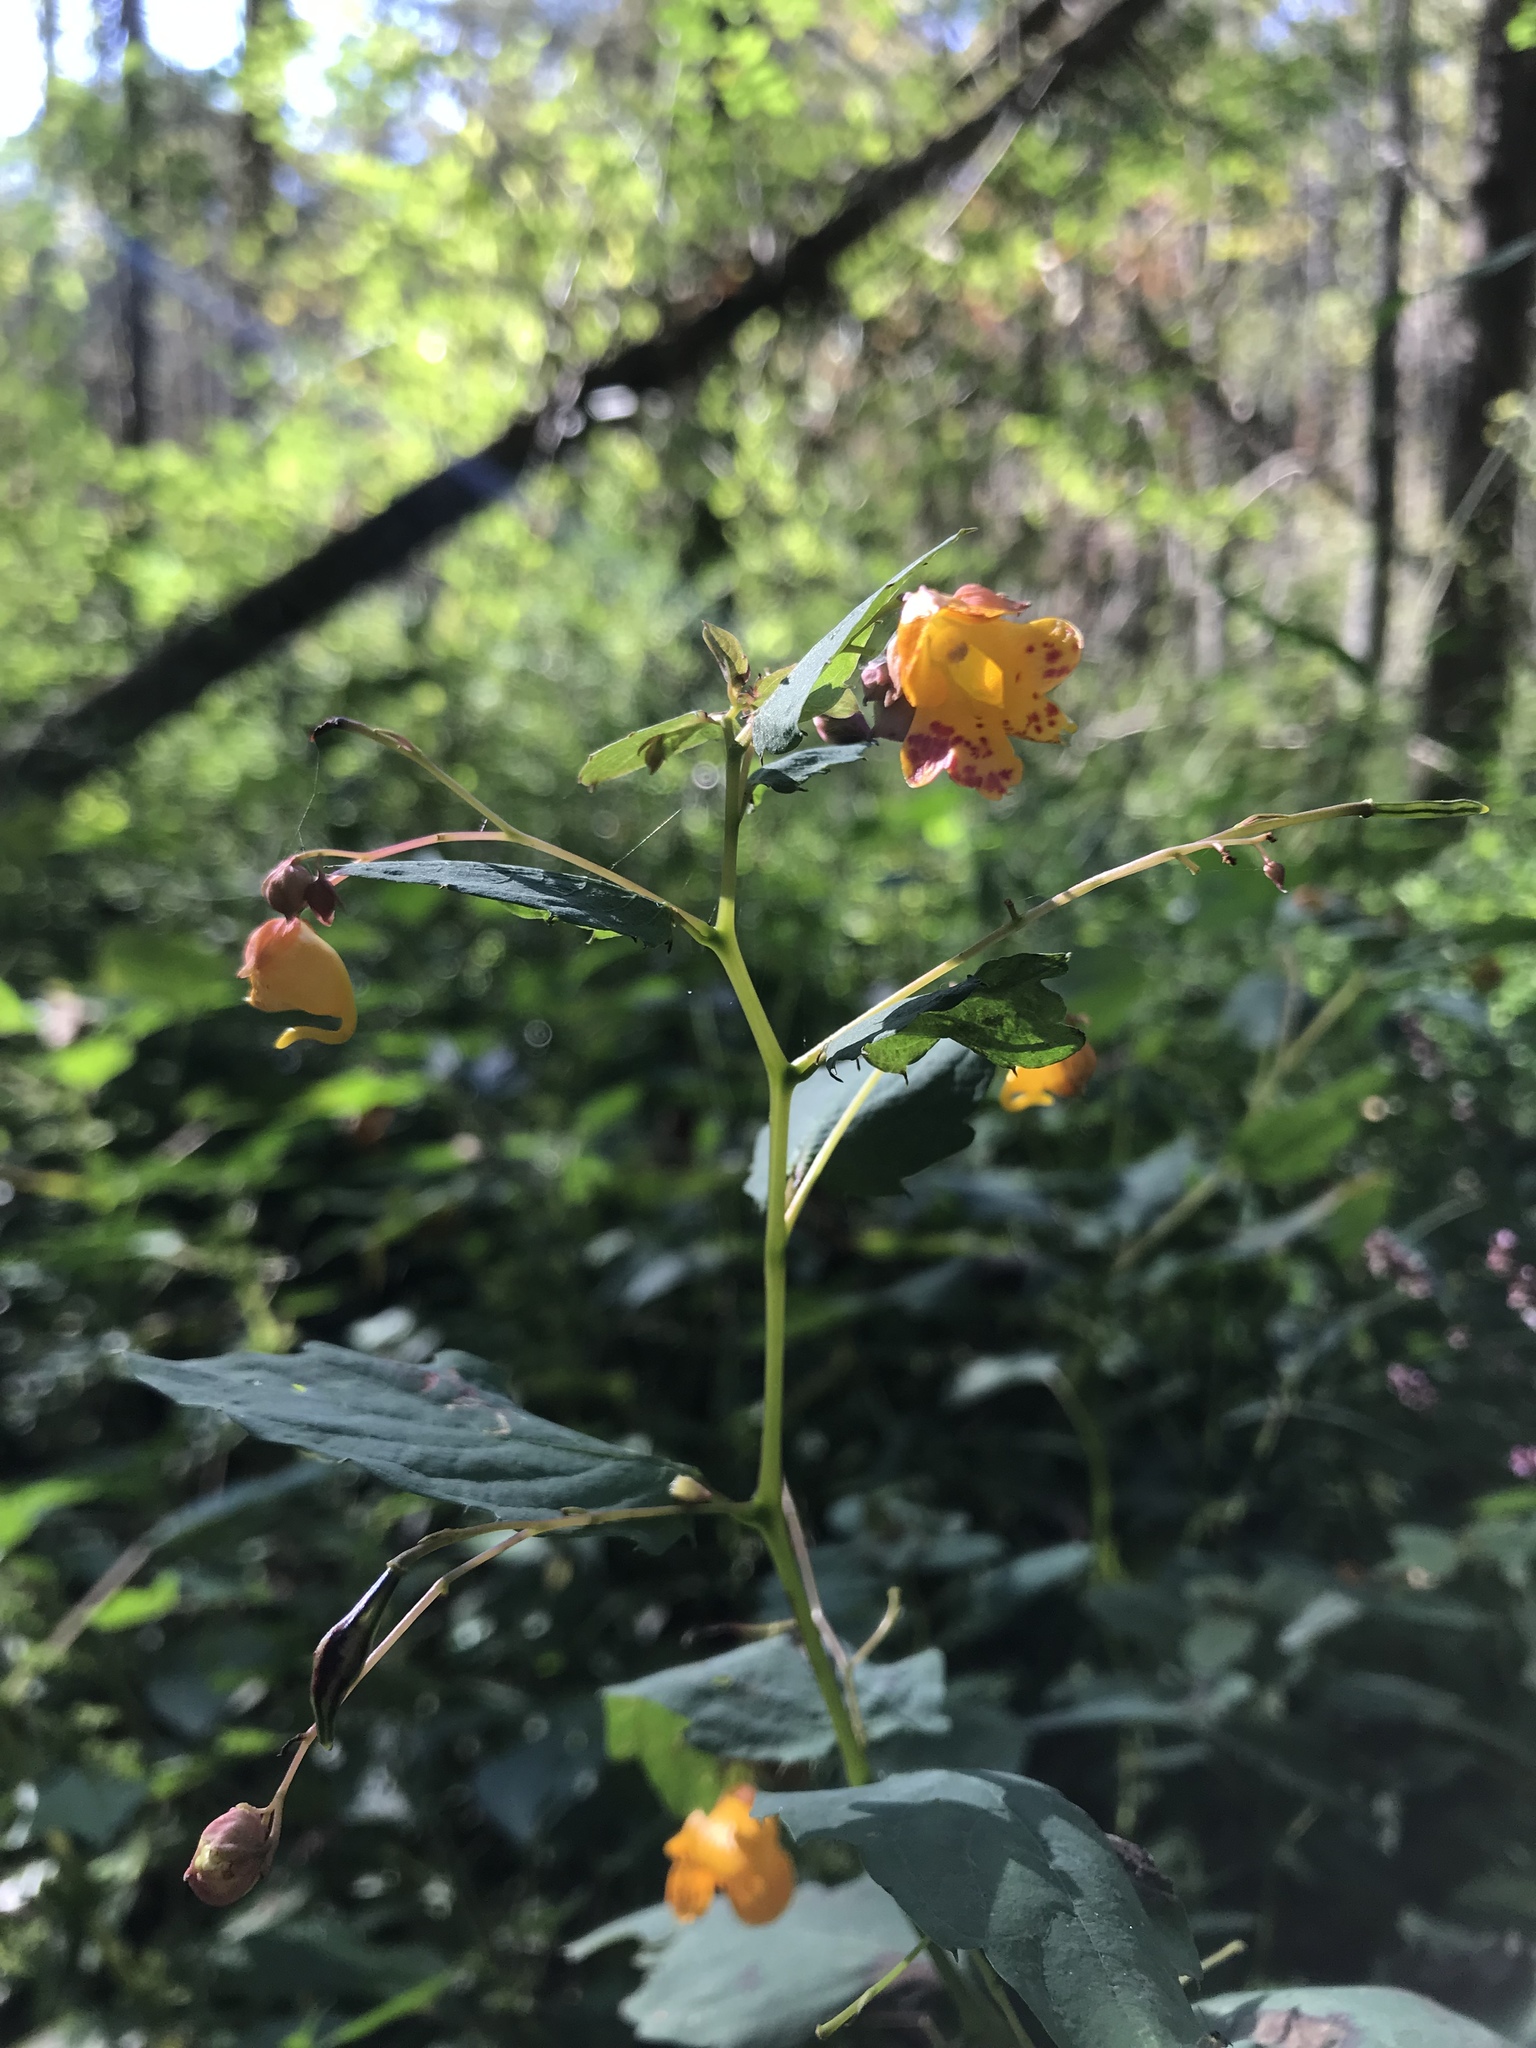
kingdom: Plantae
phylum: Tracheophyta
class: Magnoliopsida
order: Ericales
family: Balsaminaceae
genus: Impatiens
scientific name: Impatiens capensis
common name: Orange balsam
